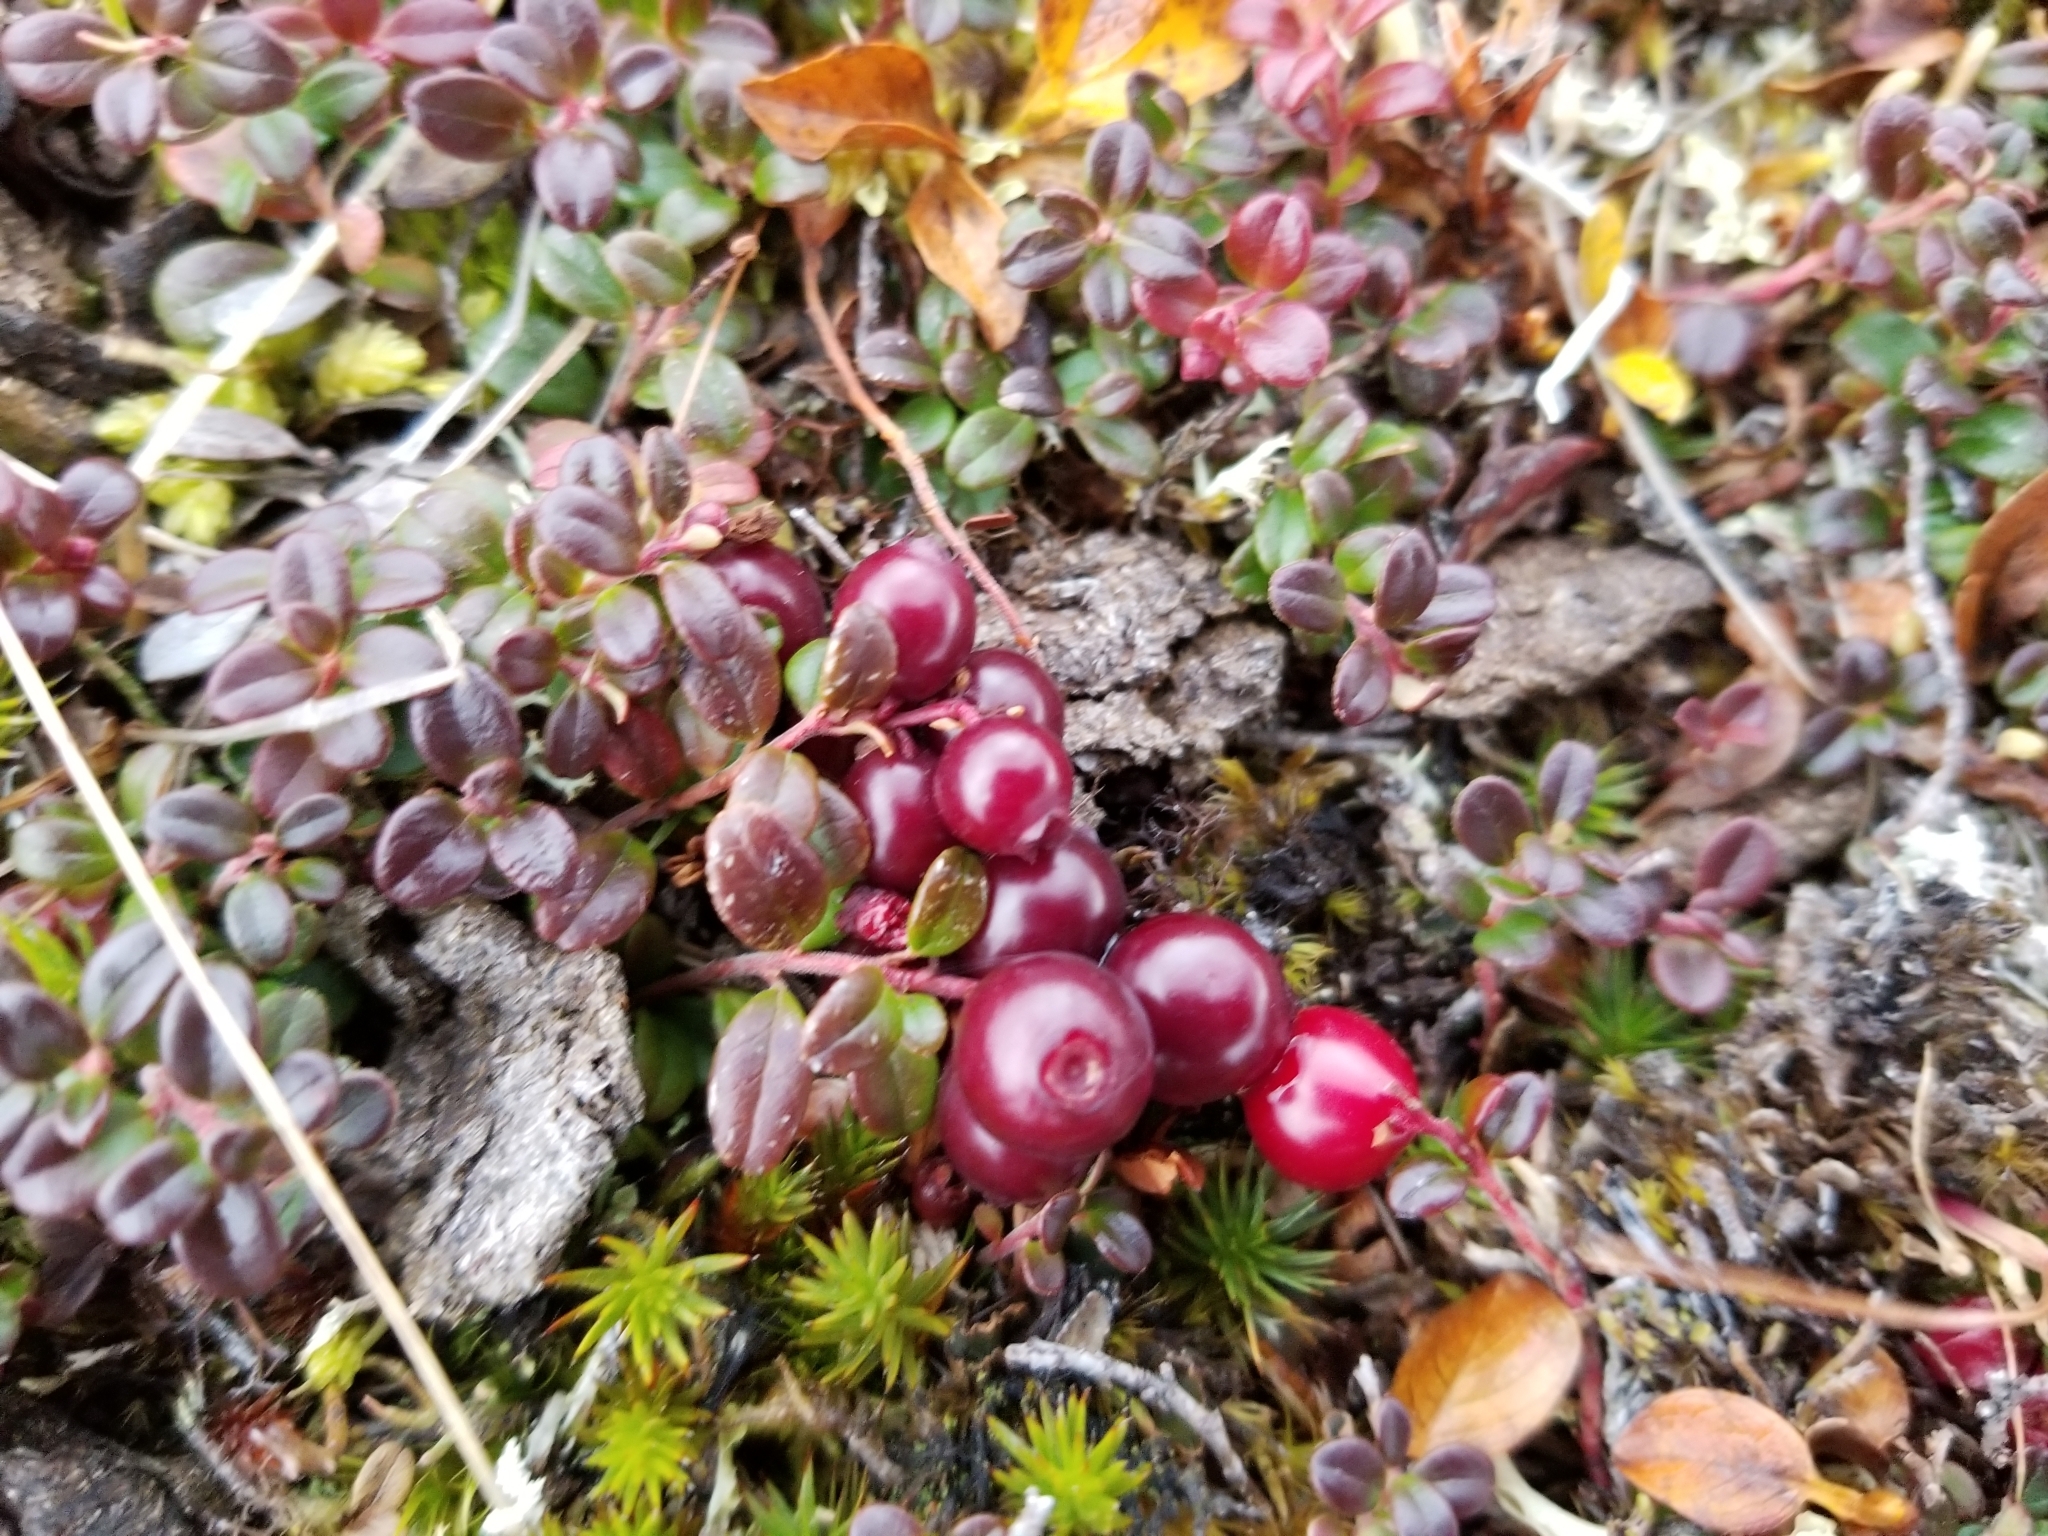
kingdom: Plantae
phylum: Tracheophyta
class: Magnoliopsida
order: Ericales
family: Ericaceae
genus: Vaccinium
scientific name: Vaccinium vitis-idaea
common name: Cowberry
